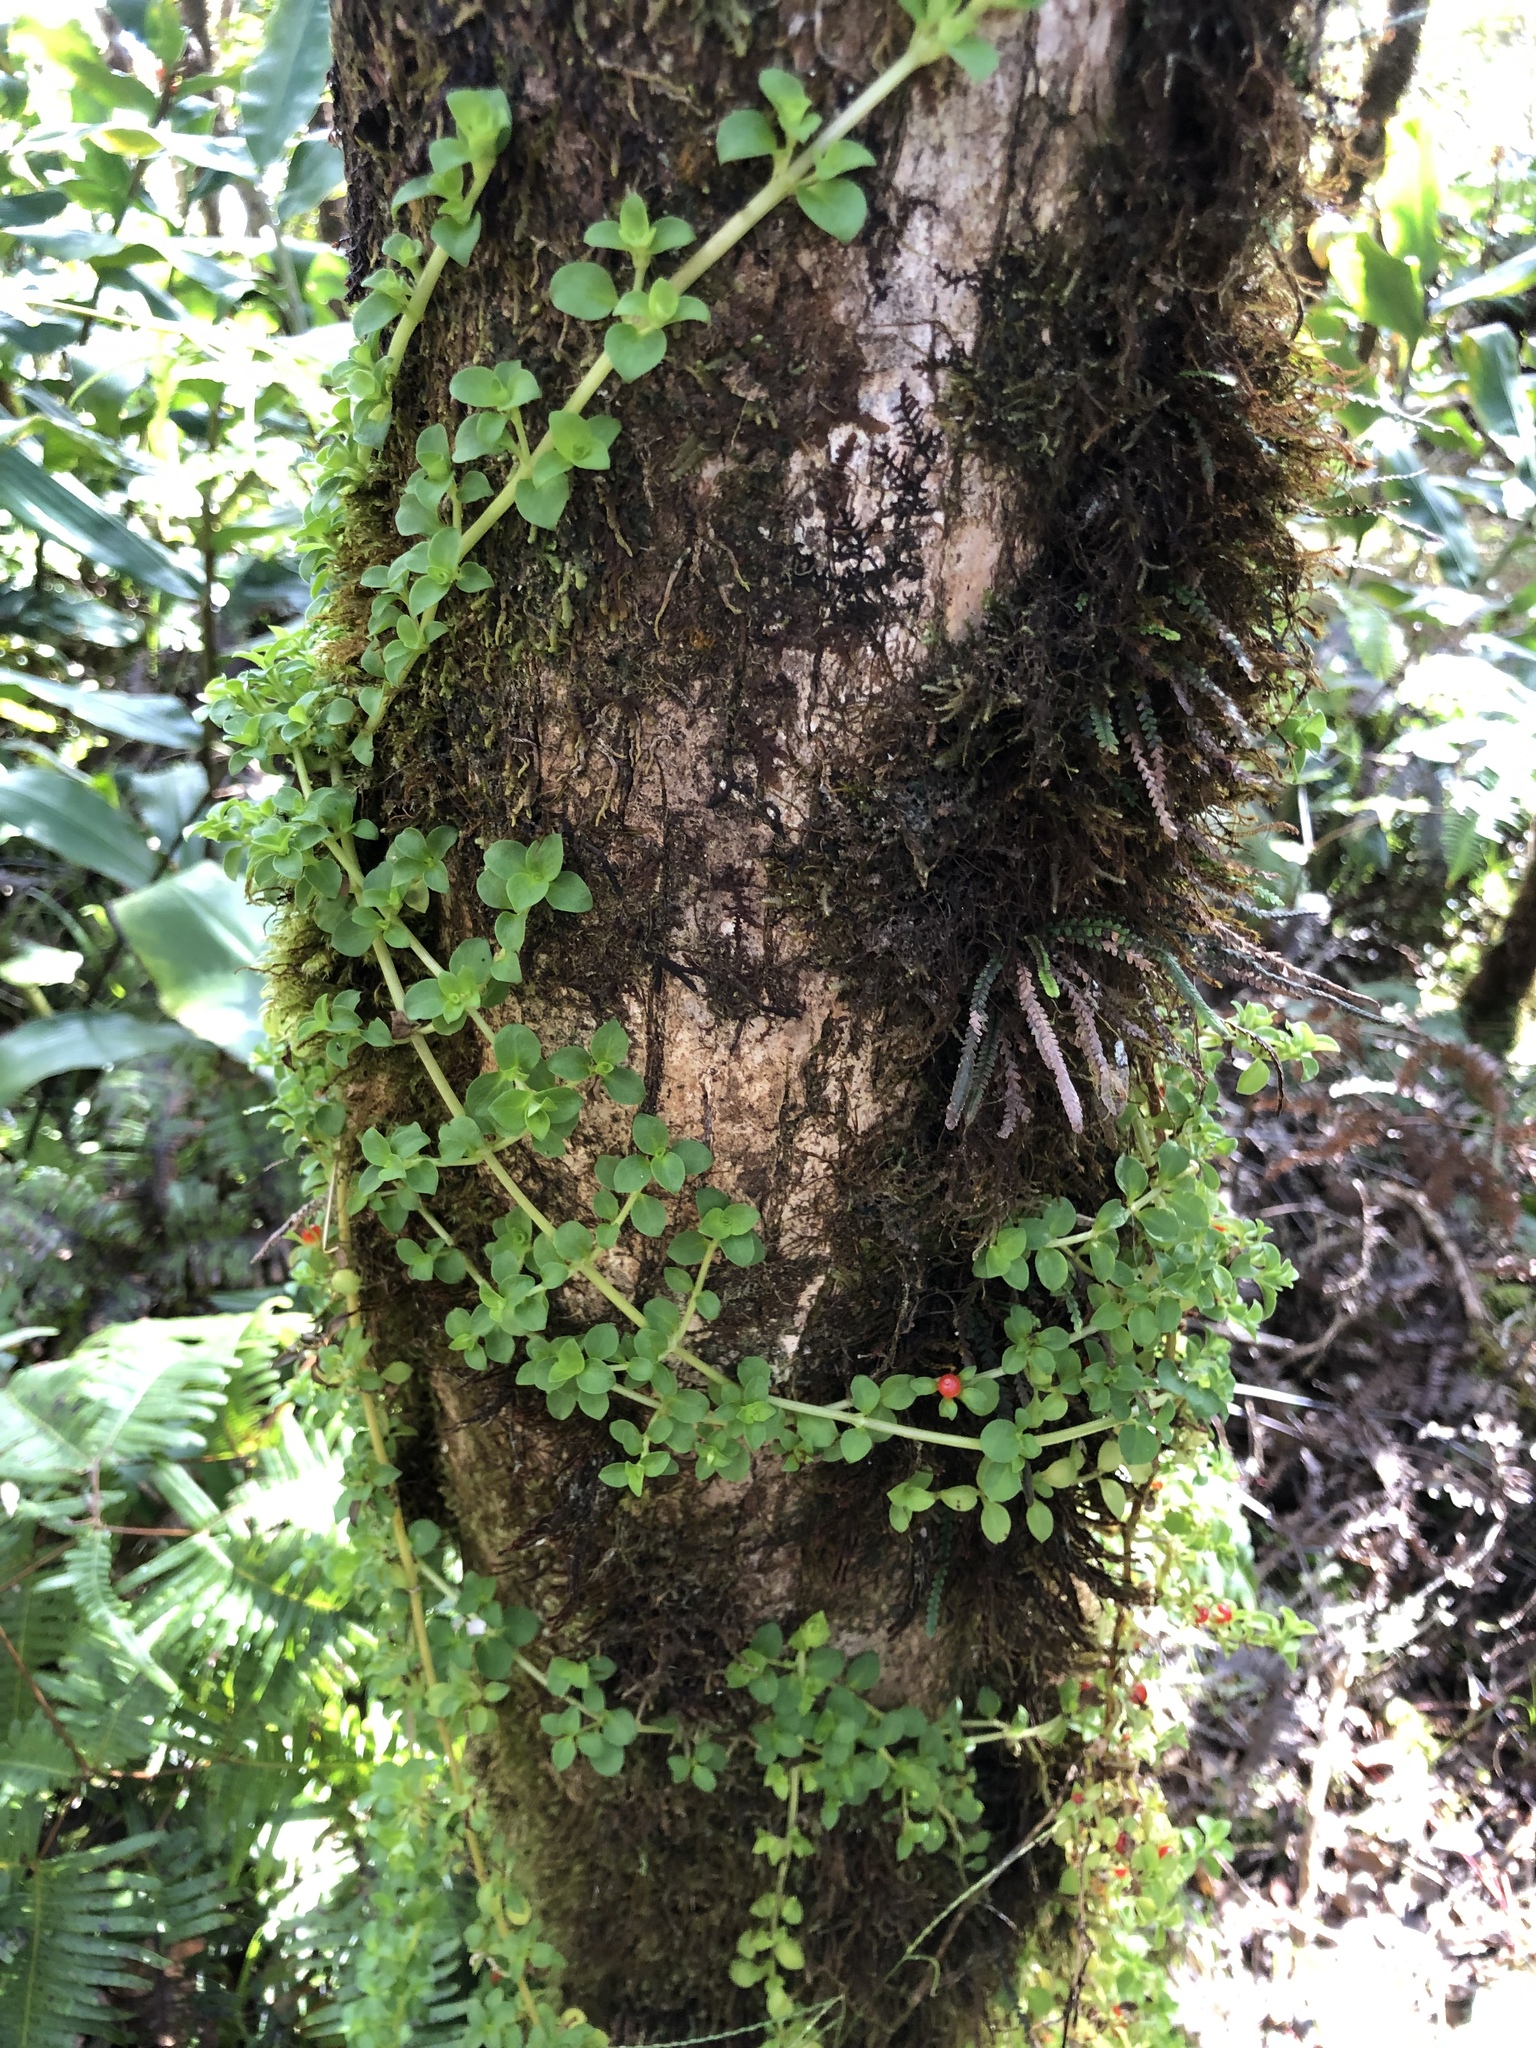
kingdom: Plantae
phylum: Tracheophyta
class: Magnoliopsida
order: Gentianales
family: Rubiaceae
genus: Nertera
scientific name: Nertera granadensis
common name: Beadplant
